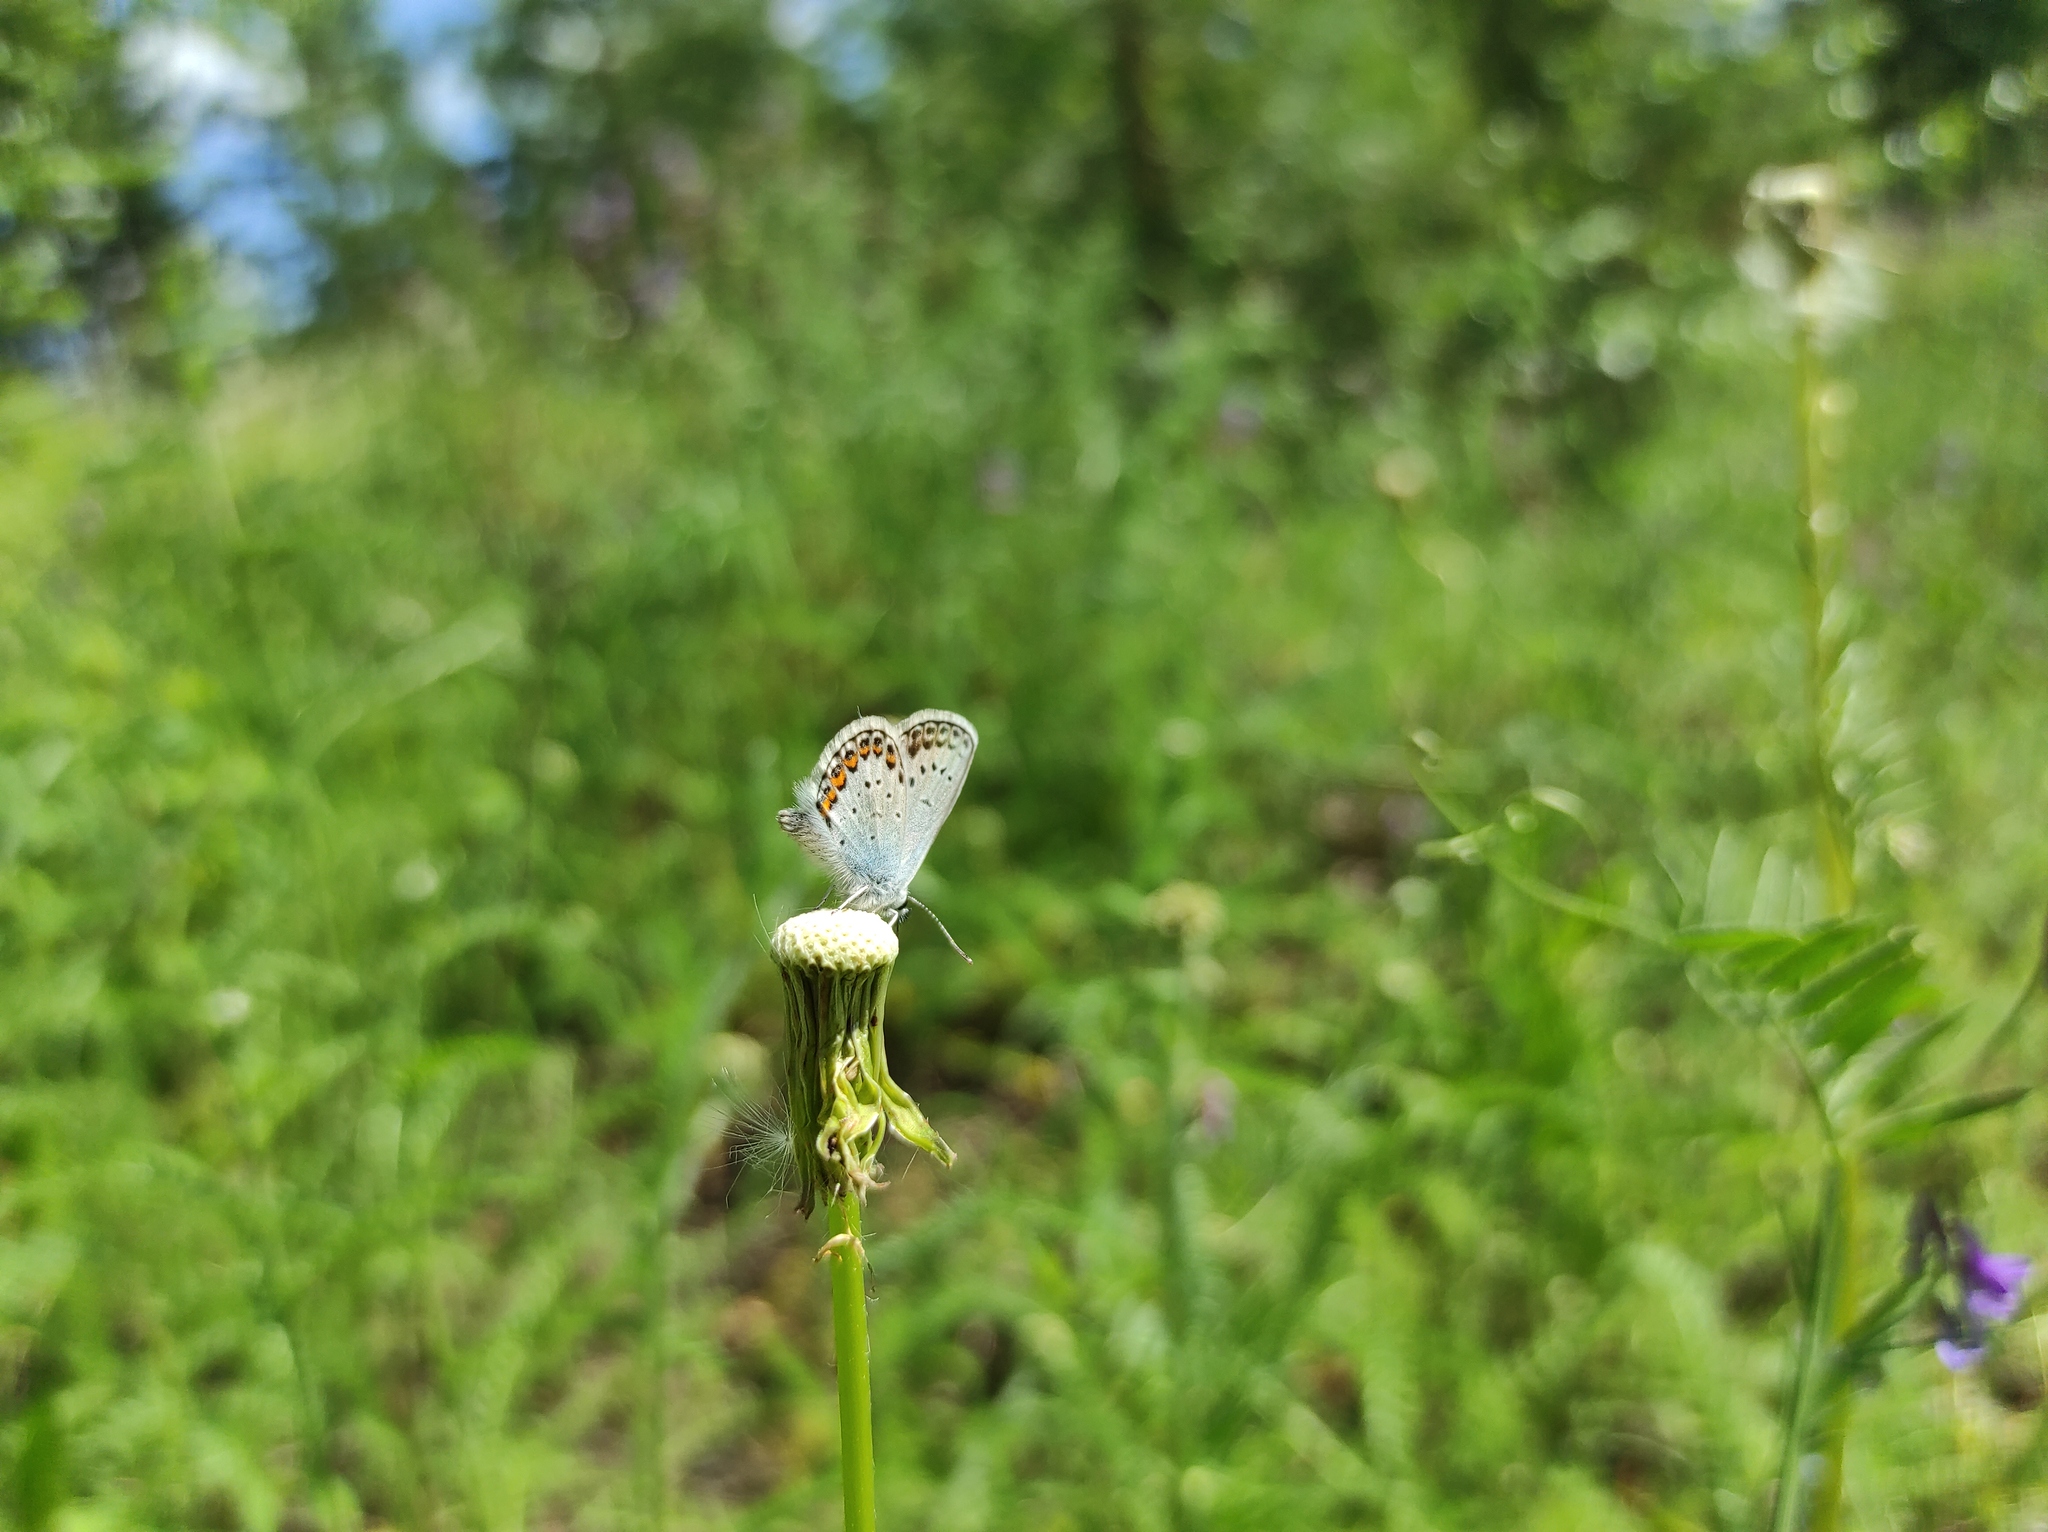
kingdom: Animalia
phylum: Arthropoda
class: Insecta
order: Lepidoptera
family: Lycaenidae
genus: Plebejus
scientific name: Plebejus argus
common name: Silver-studded blue
